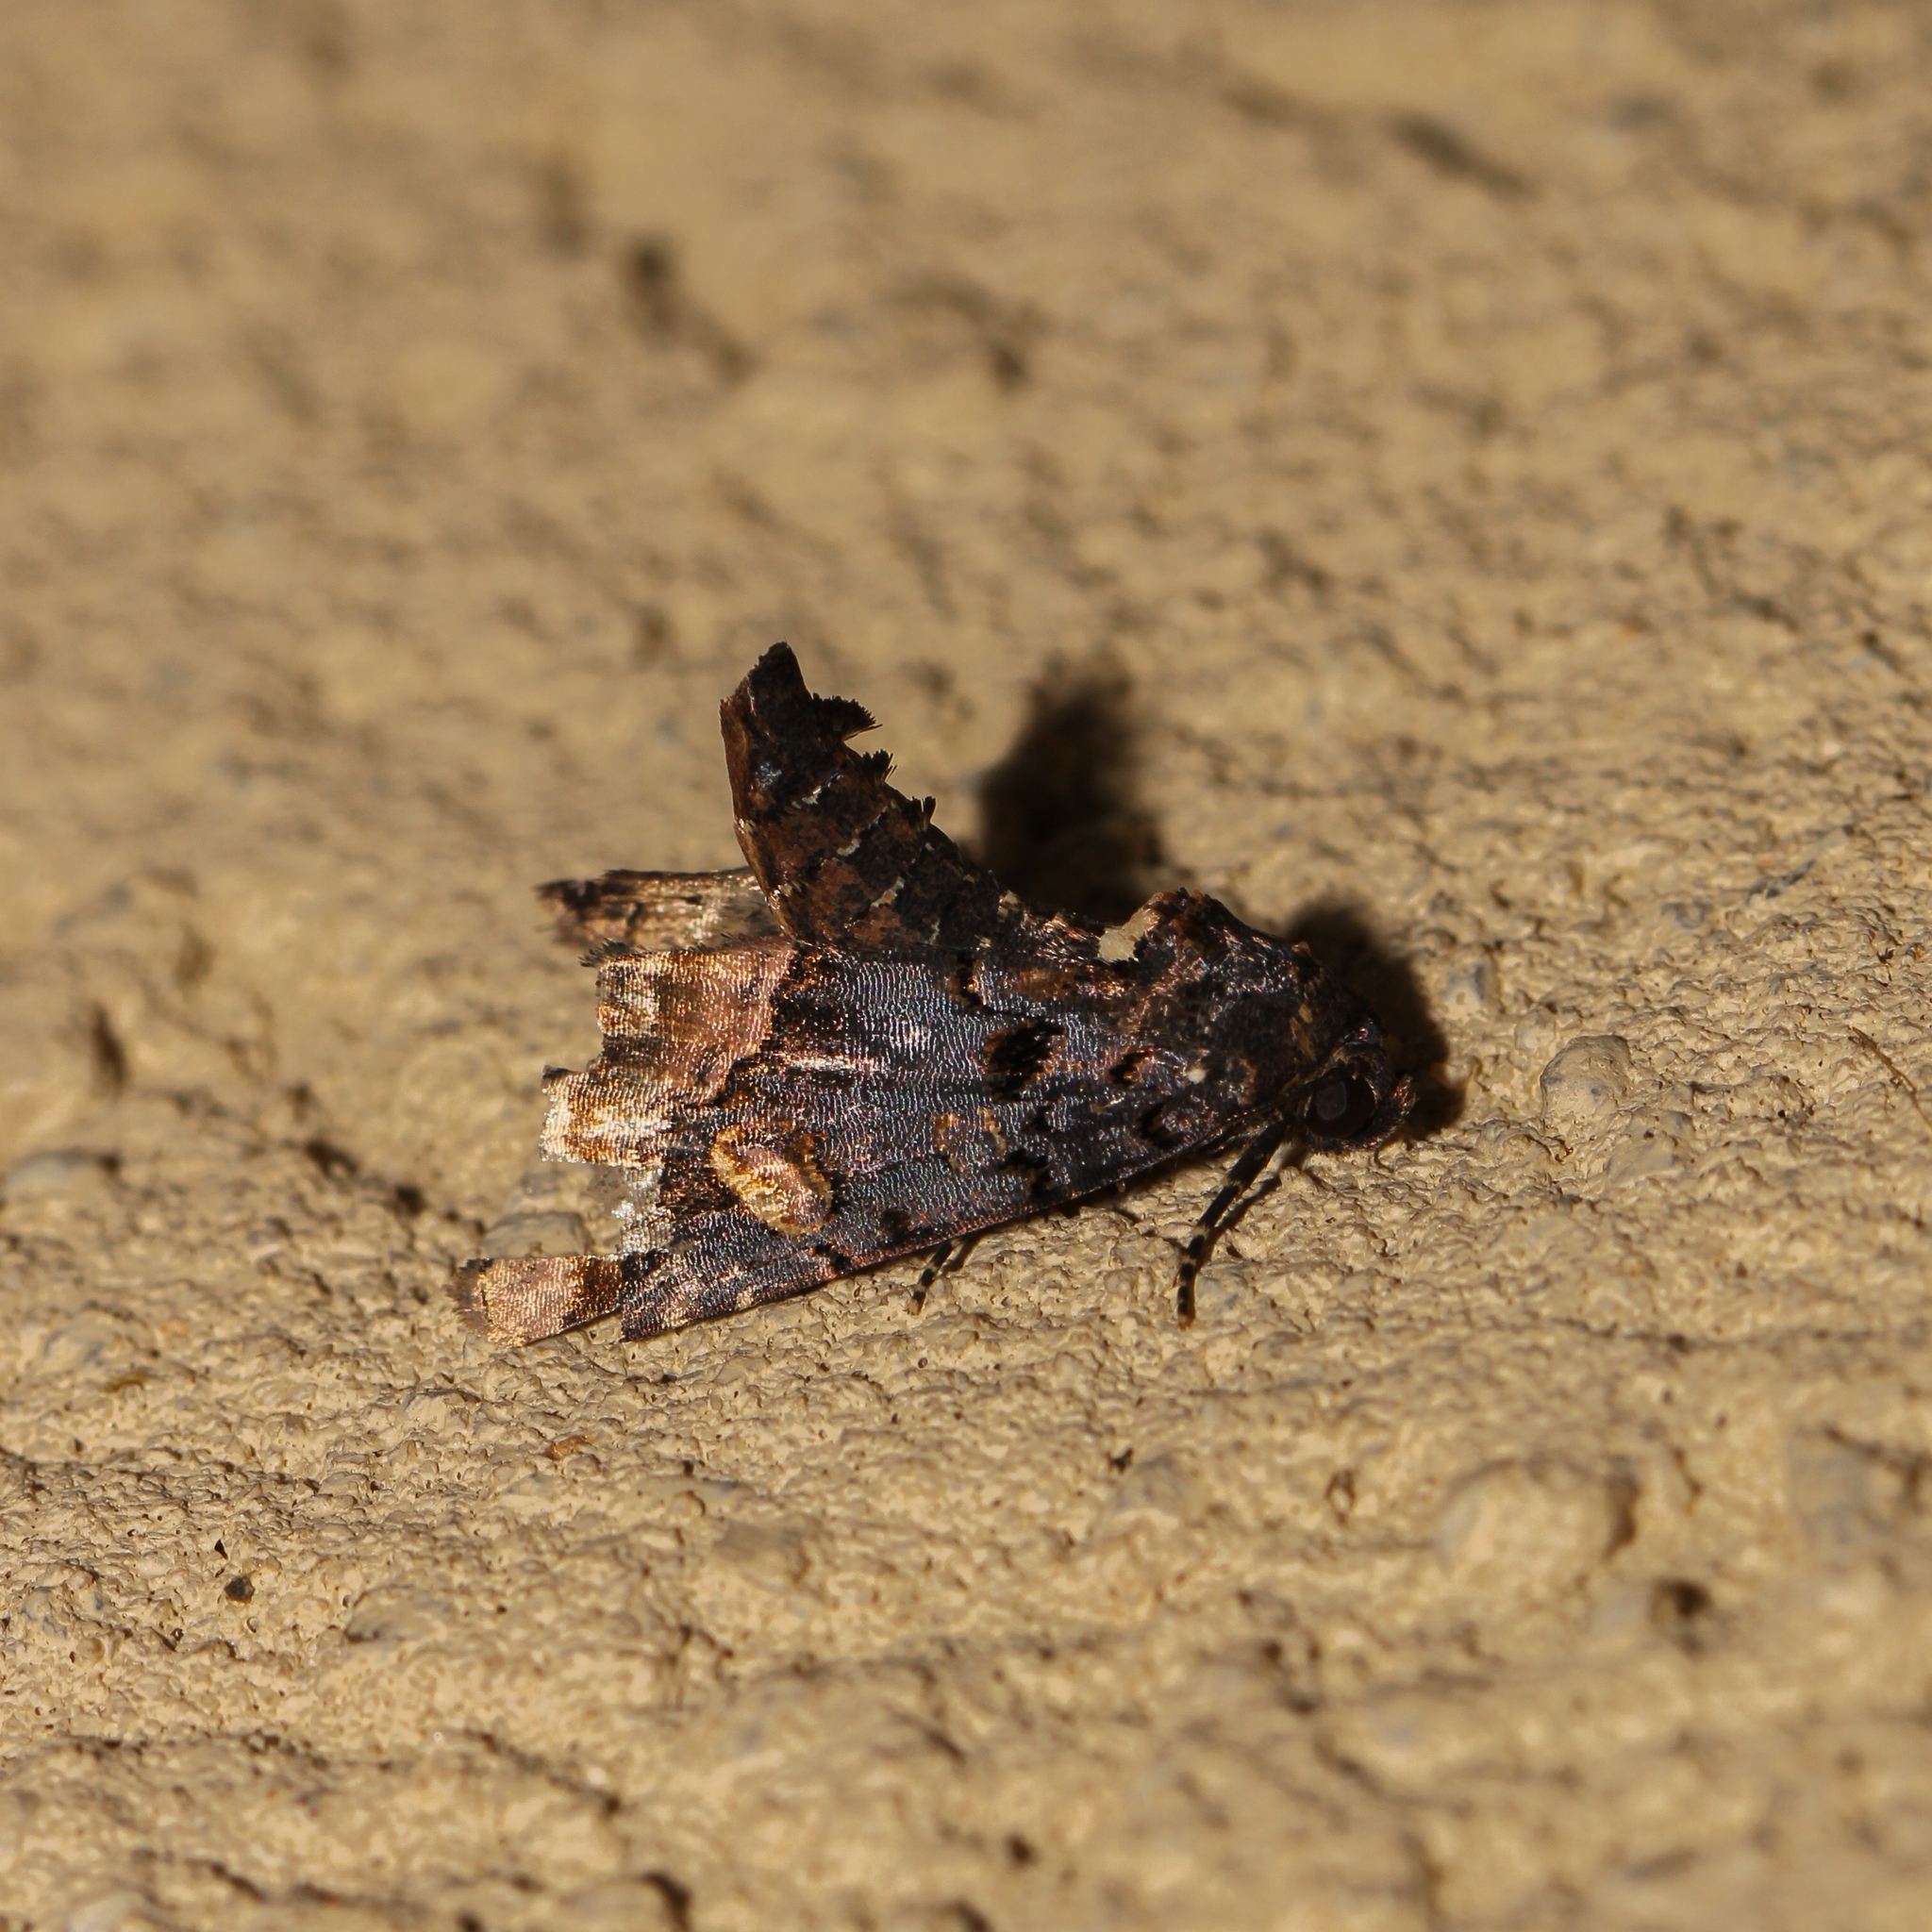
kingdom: Animalia
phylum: Arthropoda
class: Insecta
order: Lepidoptera
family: Noctuidae
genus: Homophoberia
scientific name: Homophoberia apicosa
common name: Black wedge-spot
